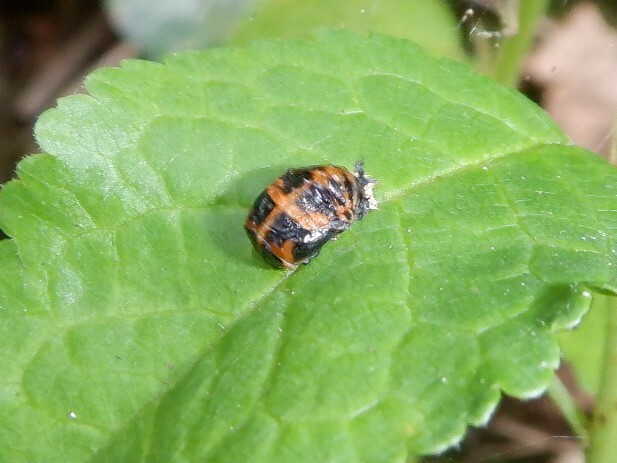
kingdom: Animalia
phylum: Arthropoda
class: Insecta
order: Coleoptera
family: Coccinellidae
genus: Harmonia
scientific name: Harmonia axyridis
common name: Harlequin ladybird
